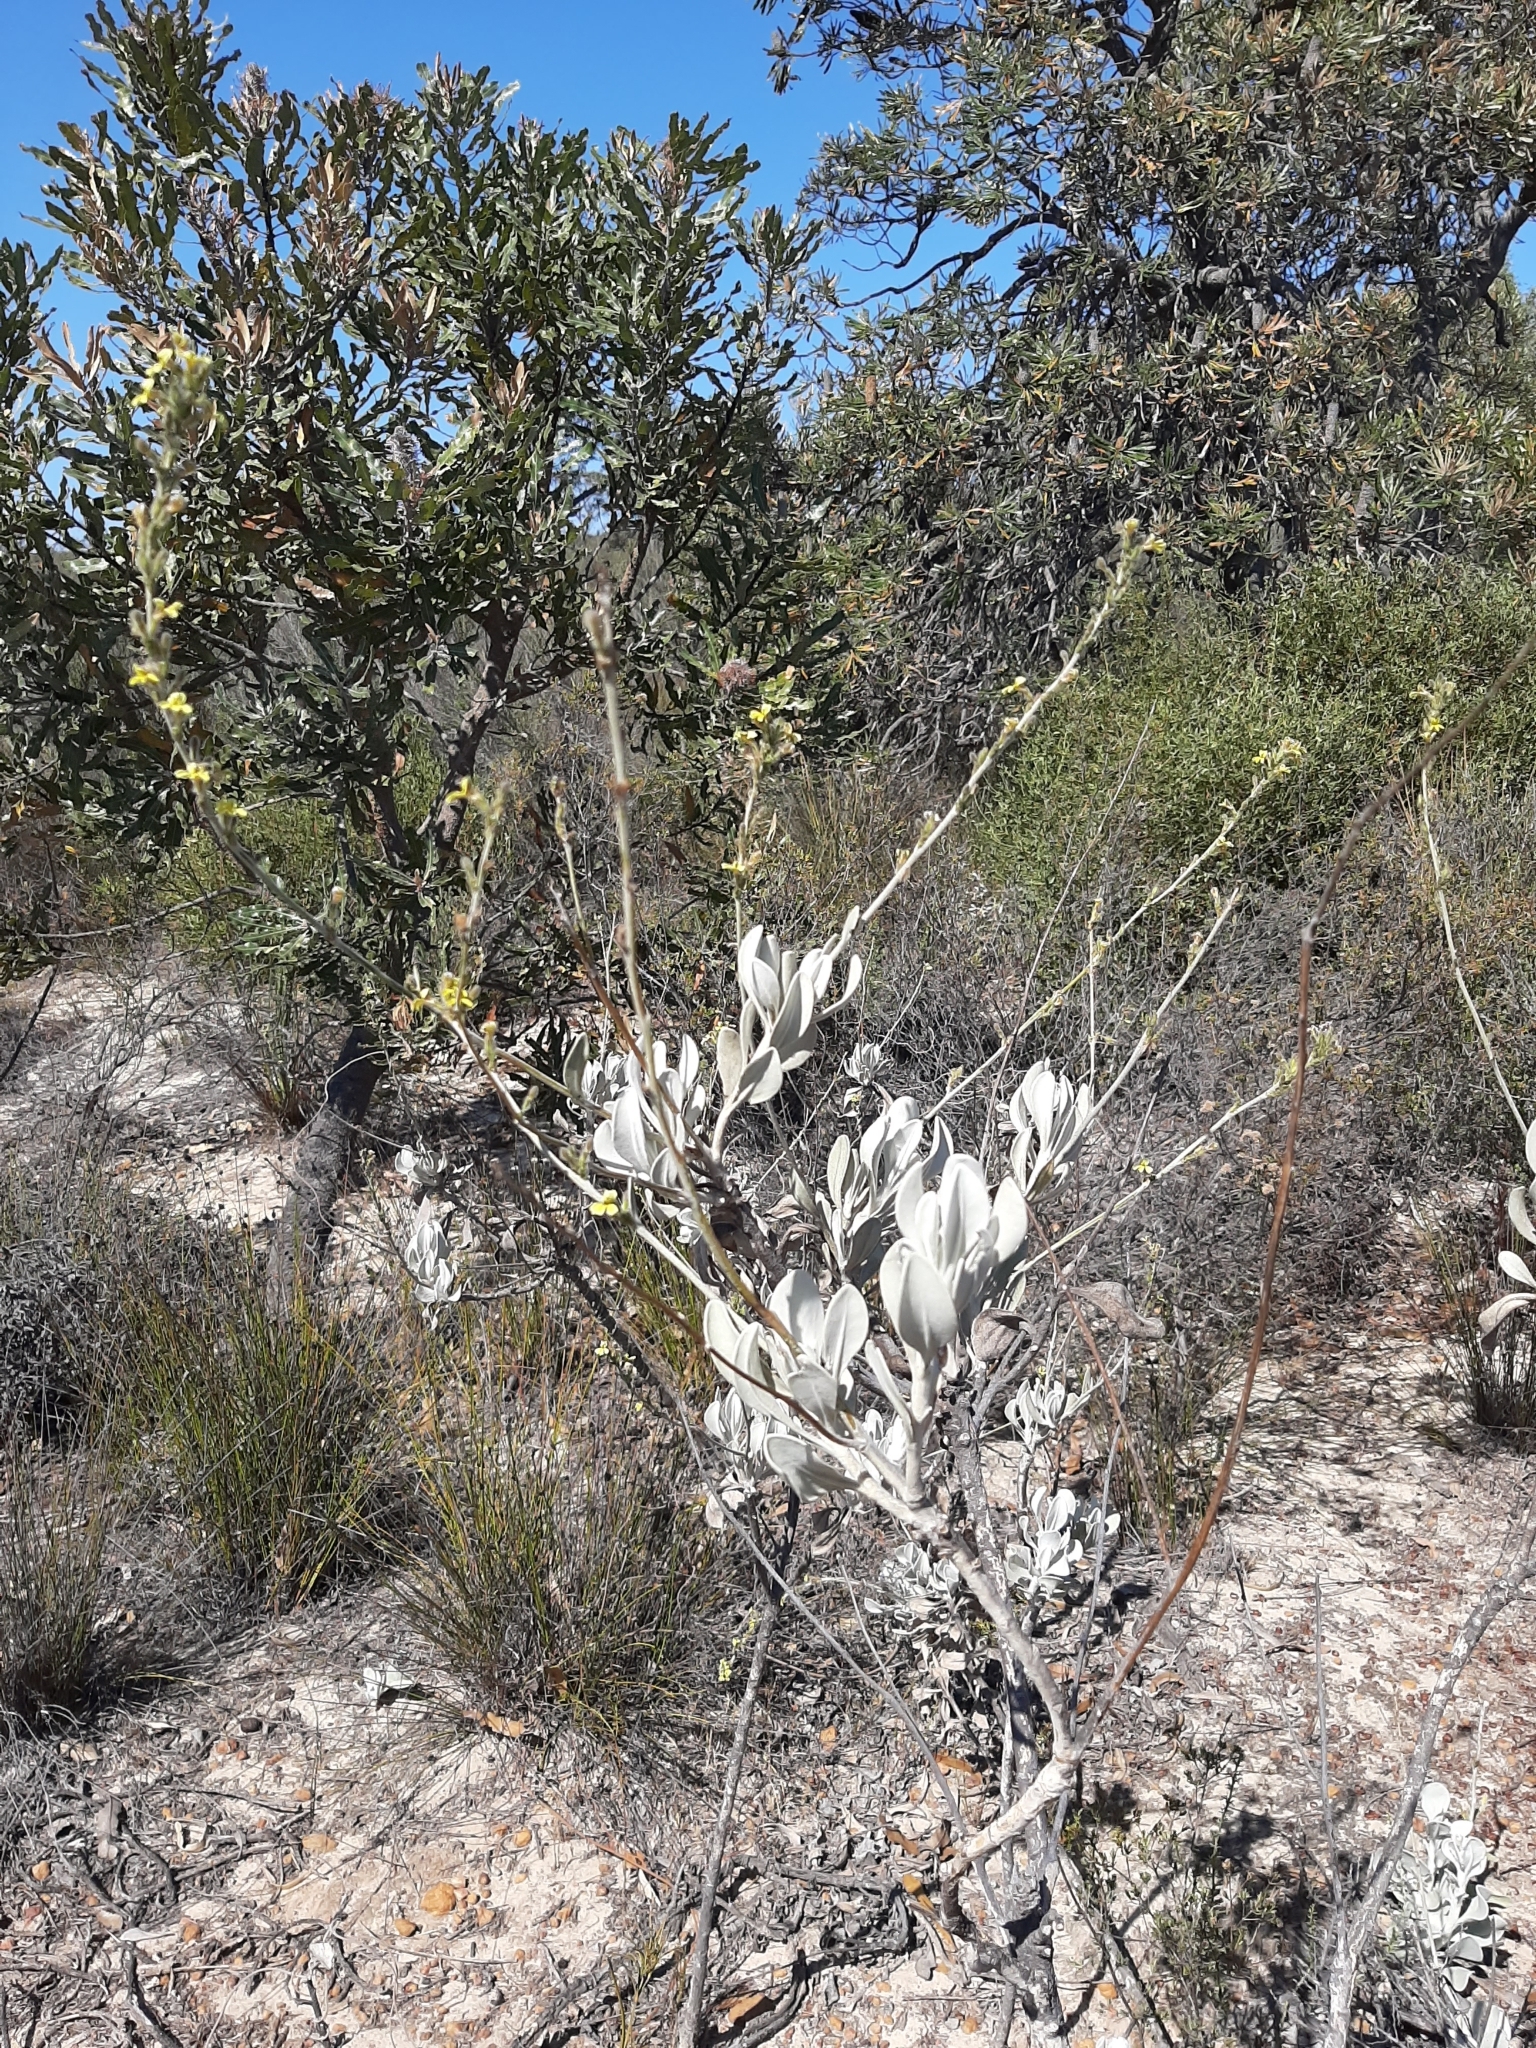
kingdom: Plantae
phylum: Tracheophyta
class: Magnoliopsida
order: Asterales
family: Goodeniaceae
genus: Goodenia
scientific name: Goodenia reinwardtii
